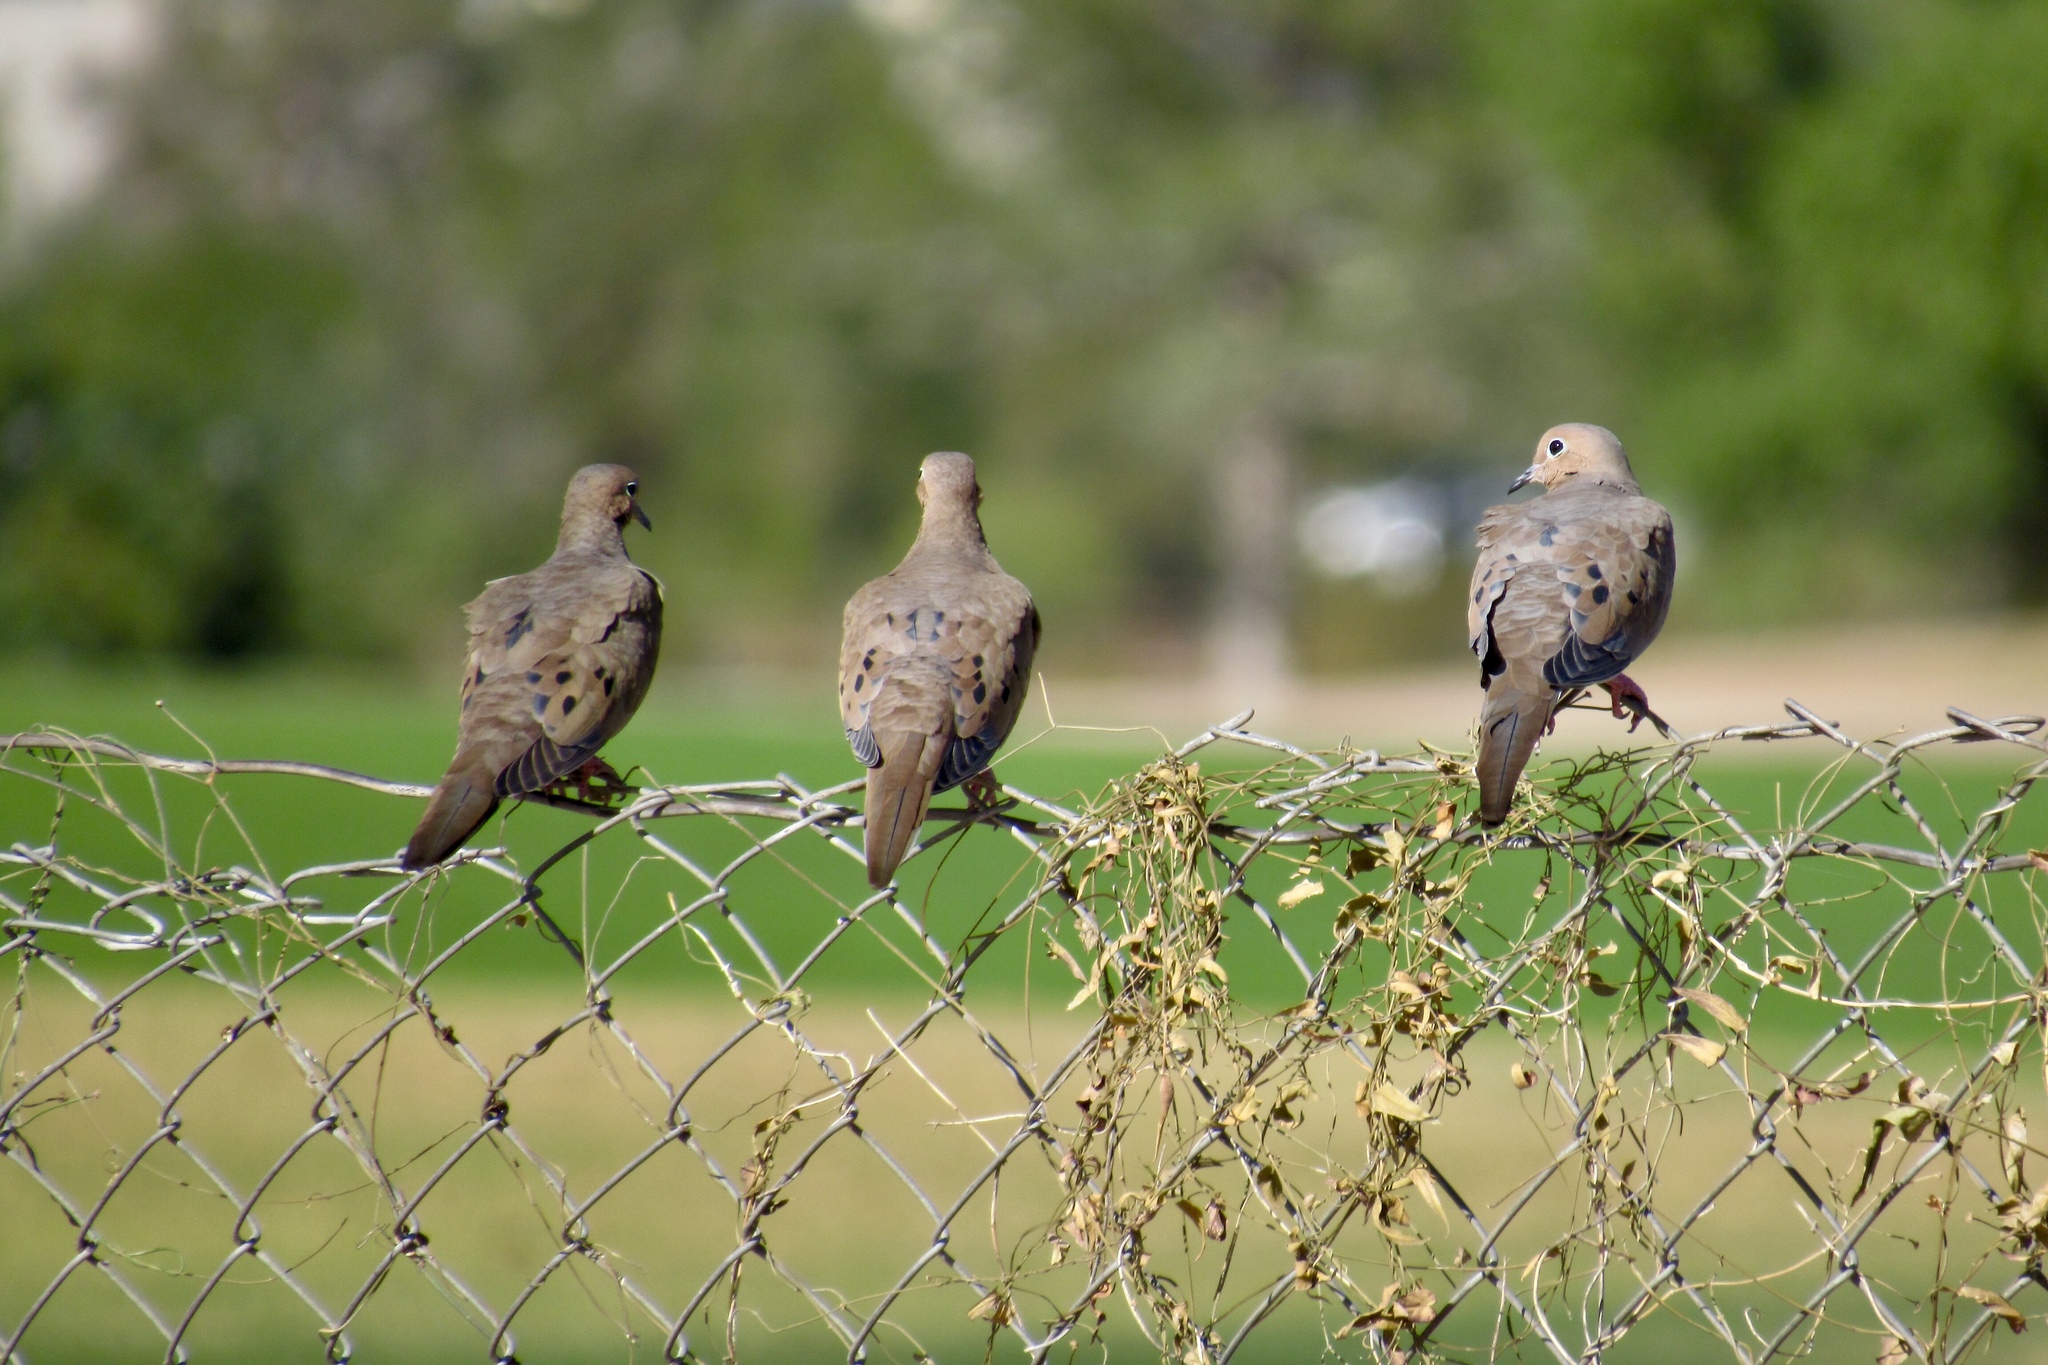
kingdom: Animalia
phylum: Chordata
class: Aves
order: Columbiformes
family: Columbidae
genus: Zenaida
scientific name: Zenaida macroura
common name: Mourning dove
